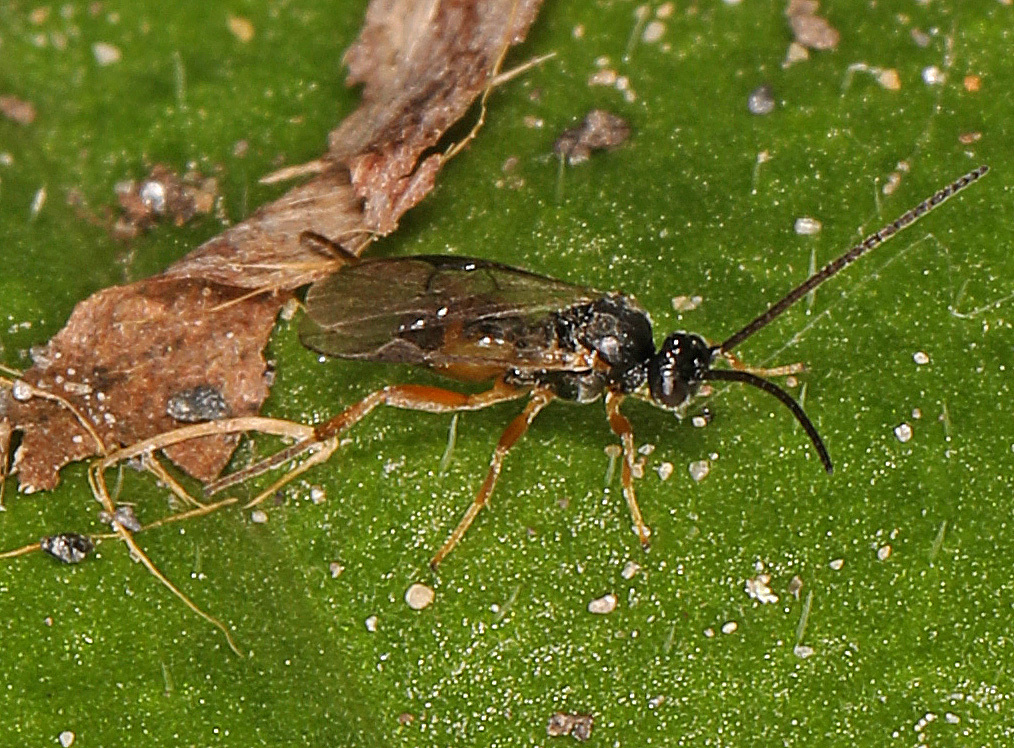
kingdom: Animalia
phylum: Arthropoda
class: Insecta
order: Hymenoptera
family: Braconidae
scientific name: Braconidae
